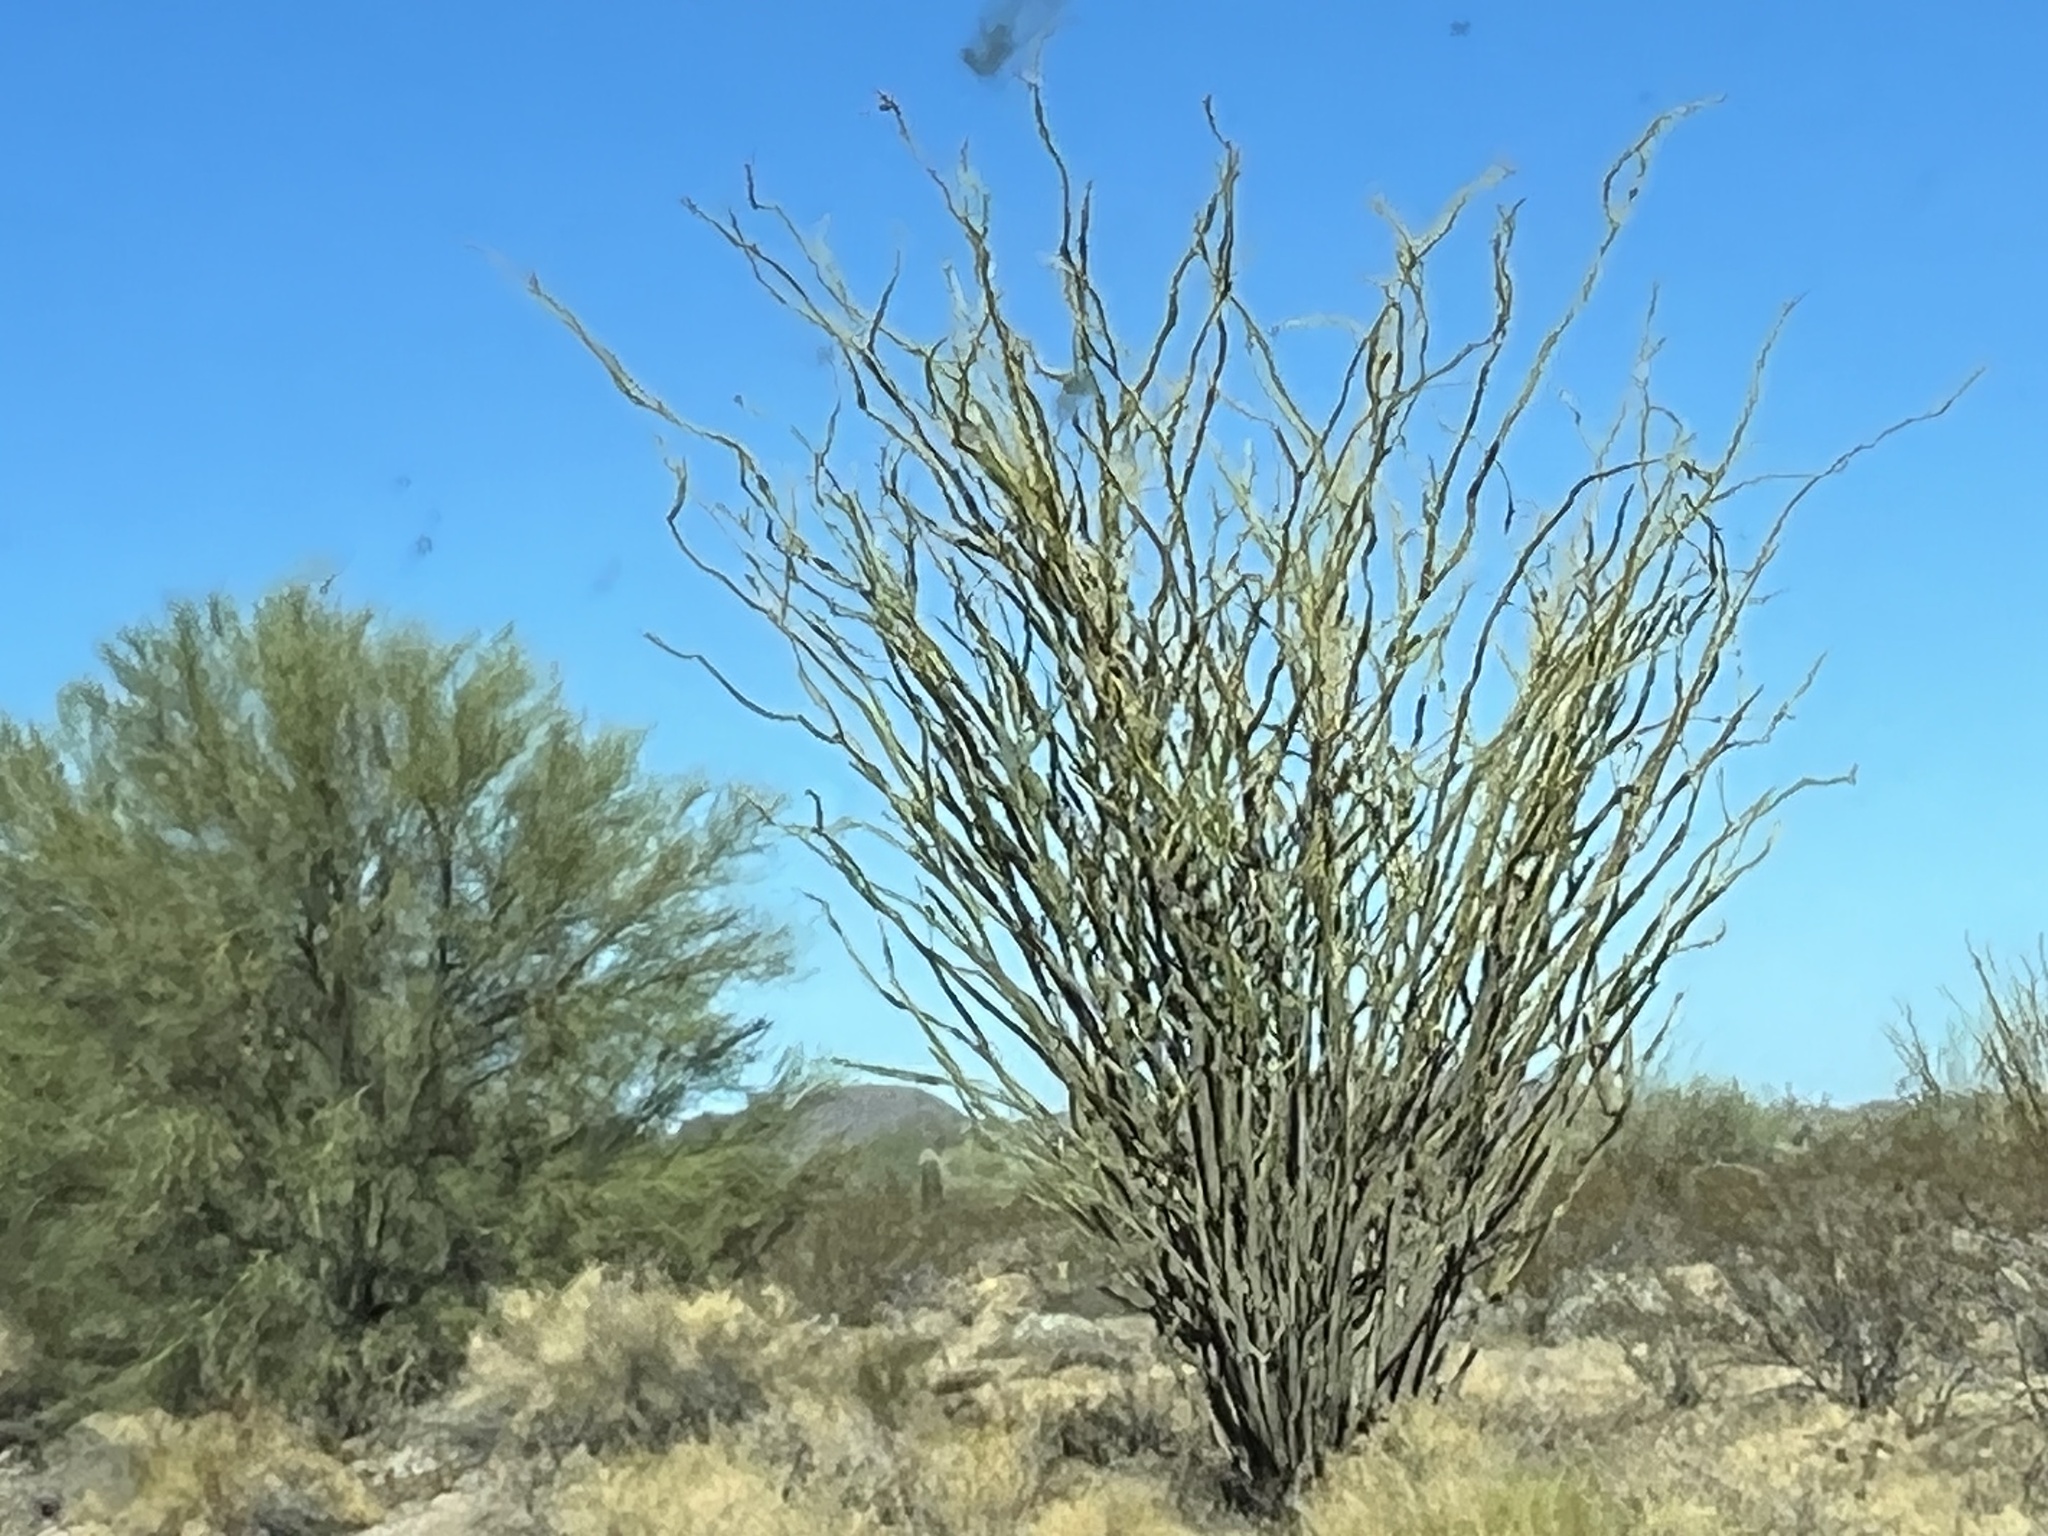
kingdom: Plantae
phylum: Tracheophyta
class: Magnoliopsida
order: Ericales
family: Fouquieriaceae
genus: Fouquieria
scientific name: Fouquieria splendens
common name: Vine-cactus
